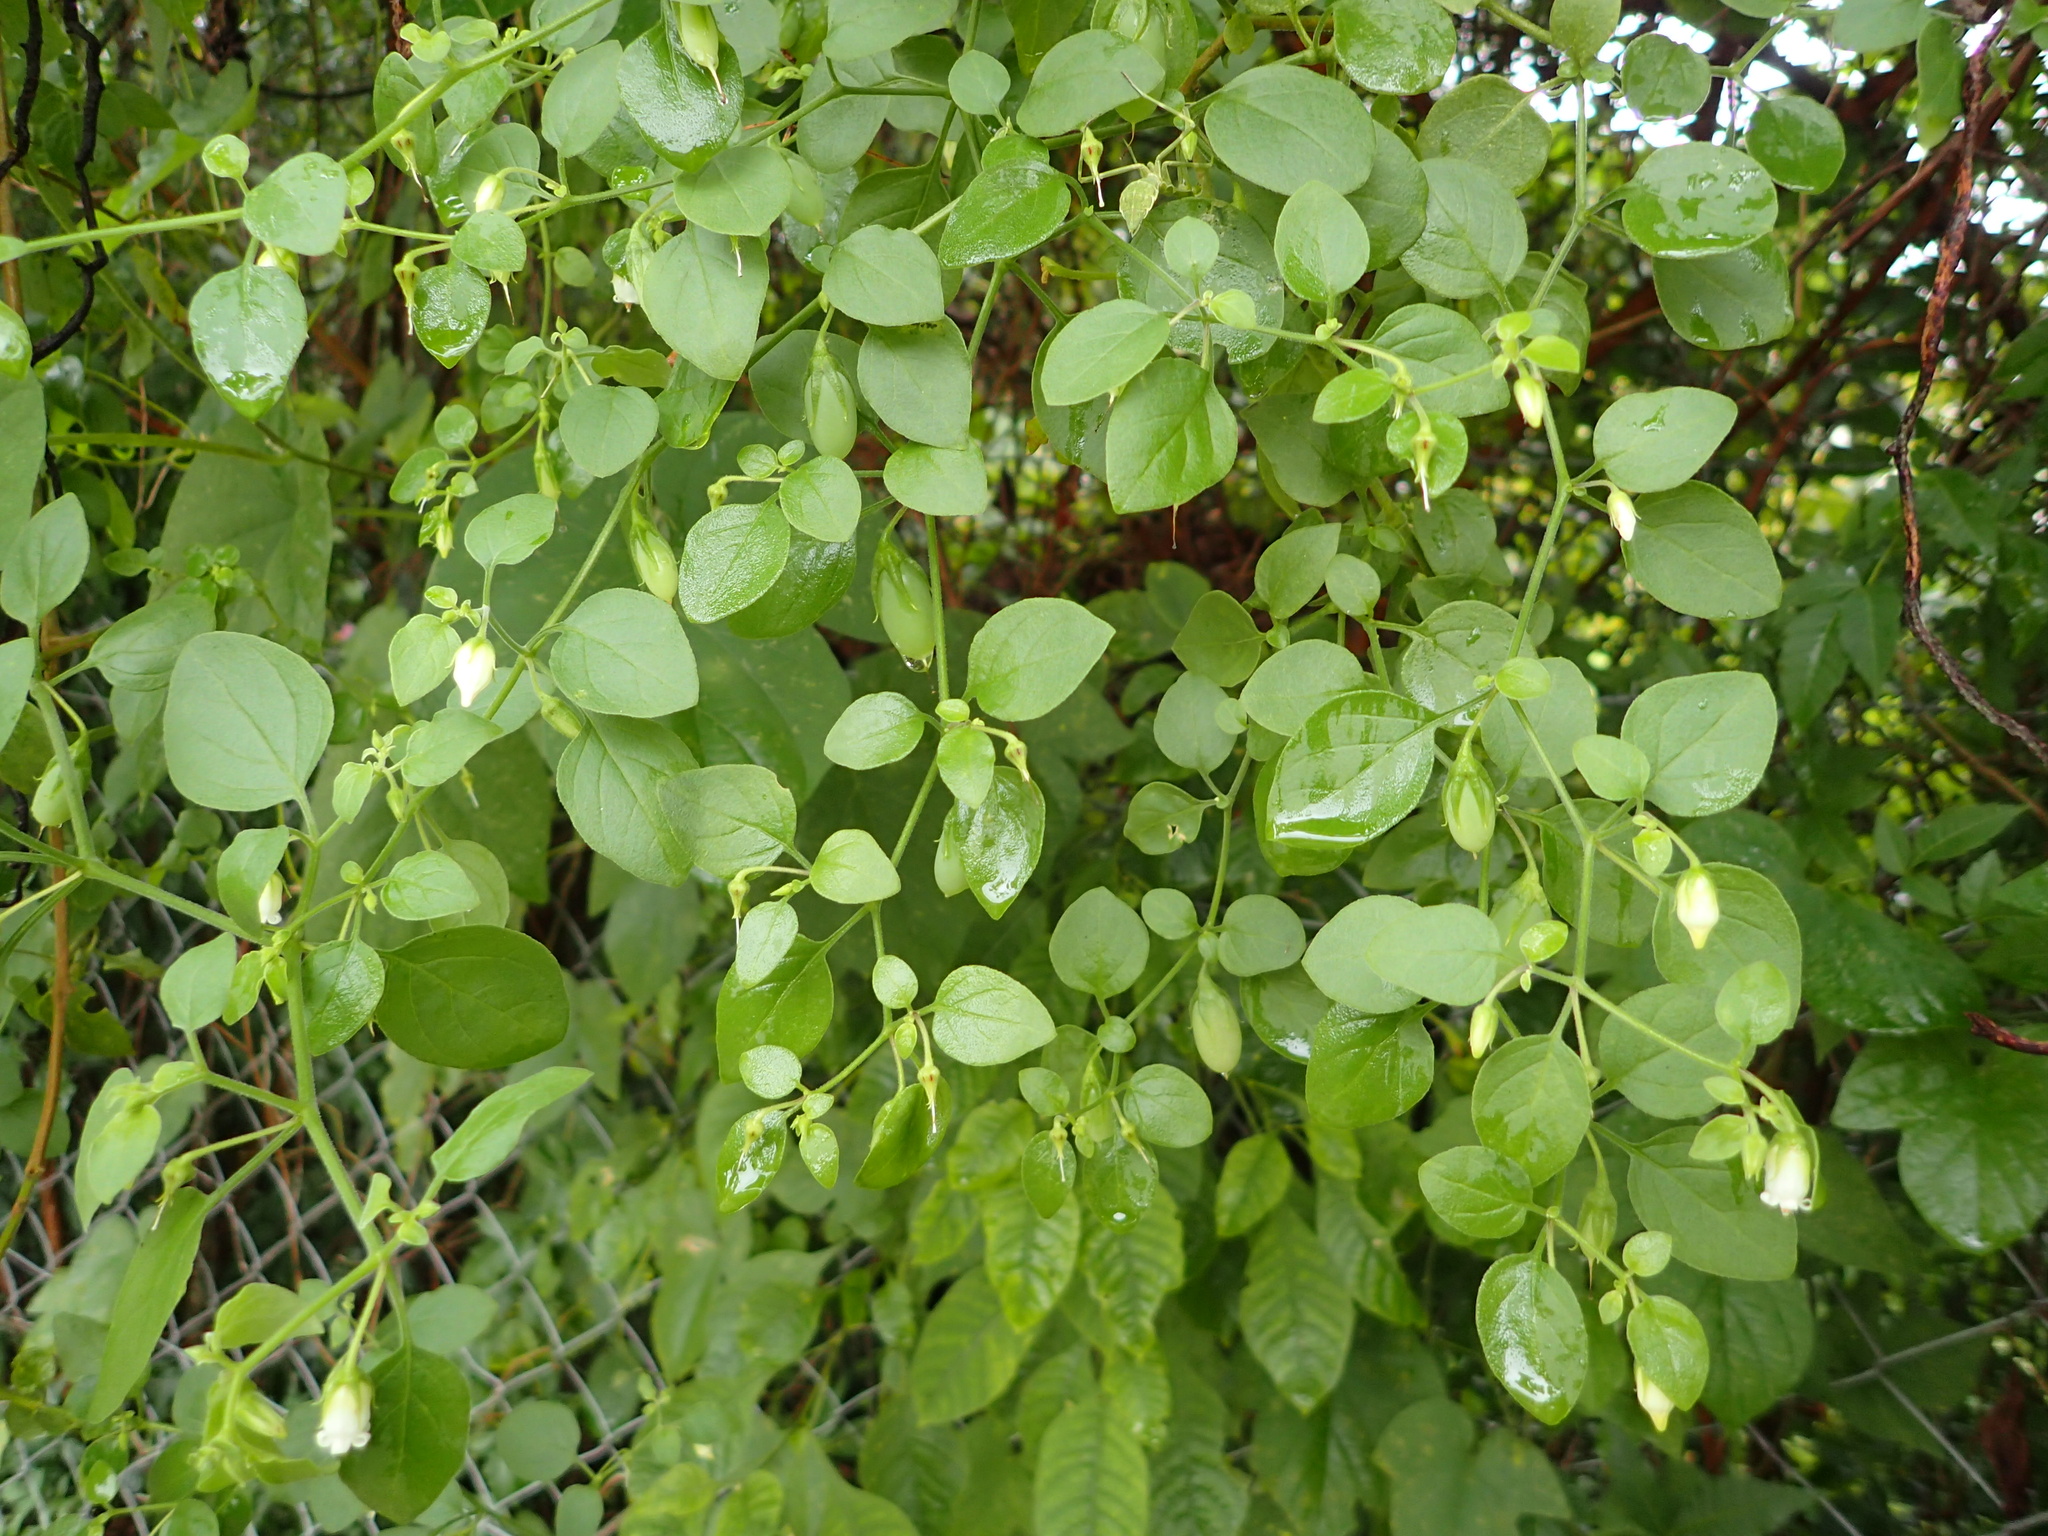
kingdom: Plantae
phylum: Tracheophyta
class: Magnoliopsida
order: Solanales
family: Solanaceae
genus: Salpichroa
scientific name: Salpichroa origanifolia
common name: Lily-of-the-valley-vine
